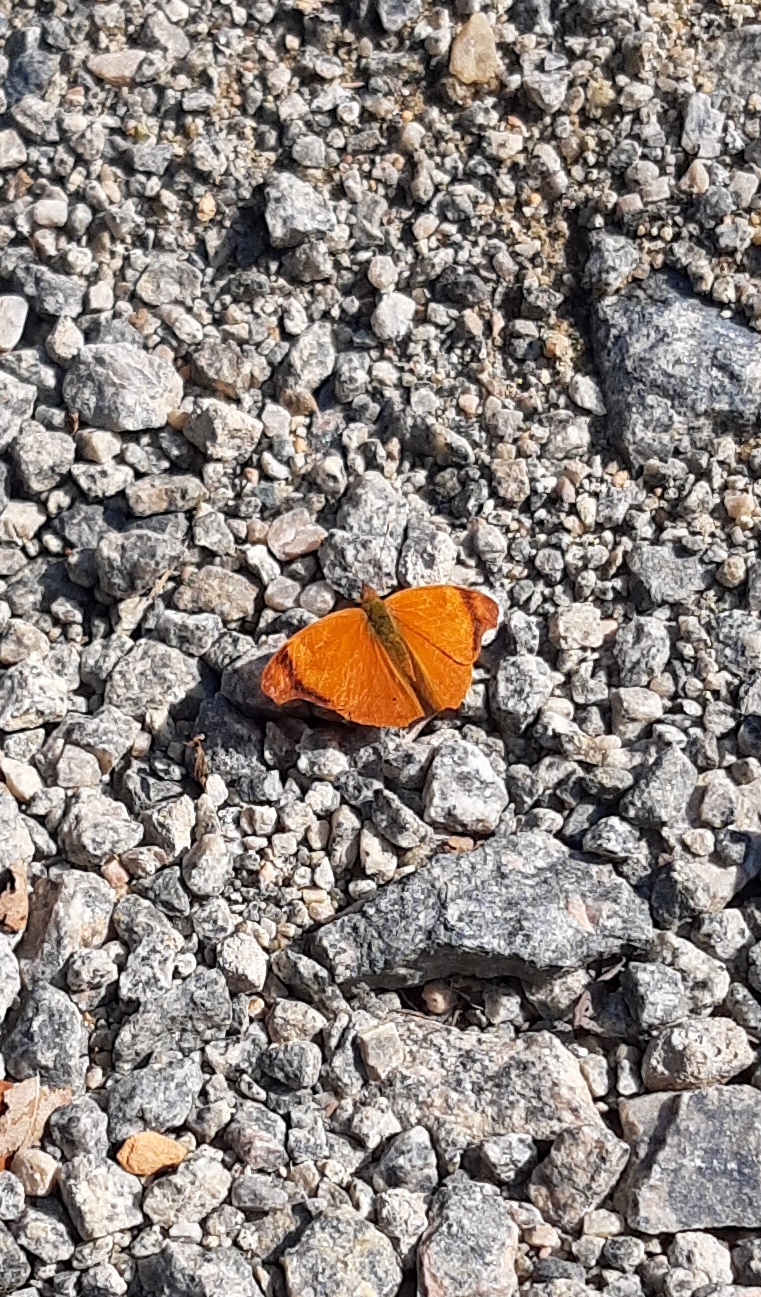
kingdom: Animalia
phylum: Arthropoda
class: Insecta
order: Lepidoptera
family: Nymphalidae
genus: Temenis
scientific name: Temenis laothoe
